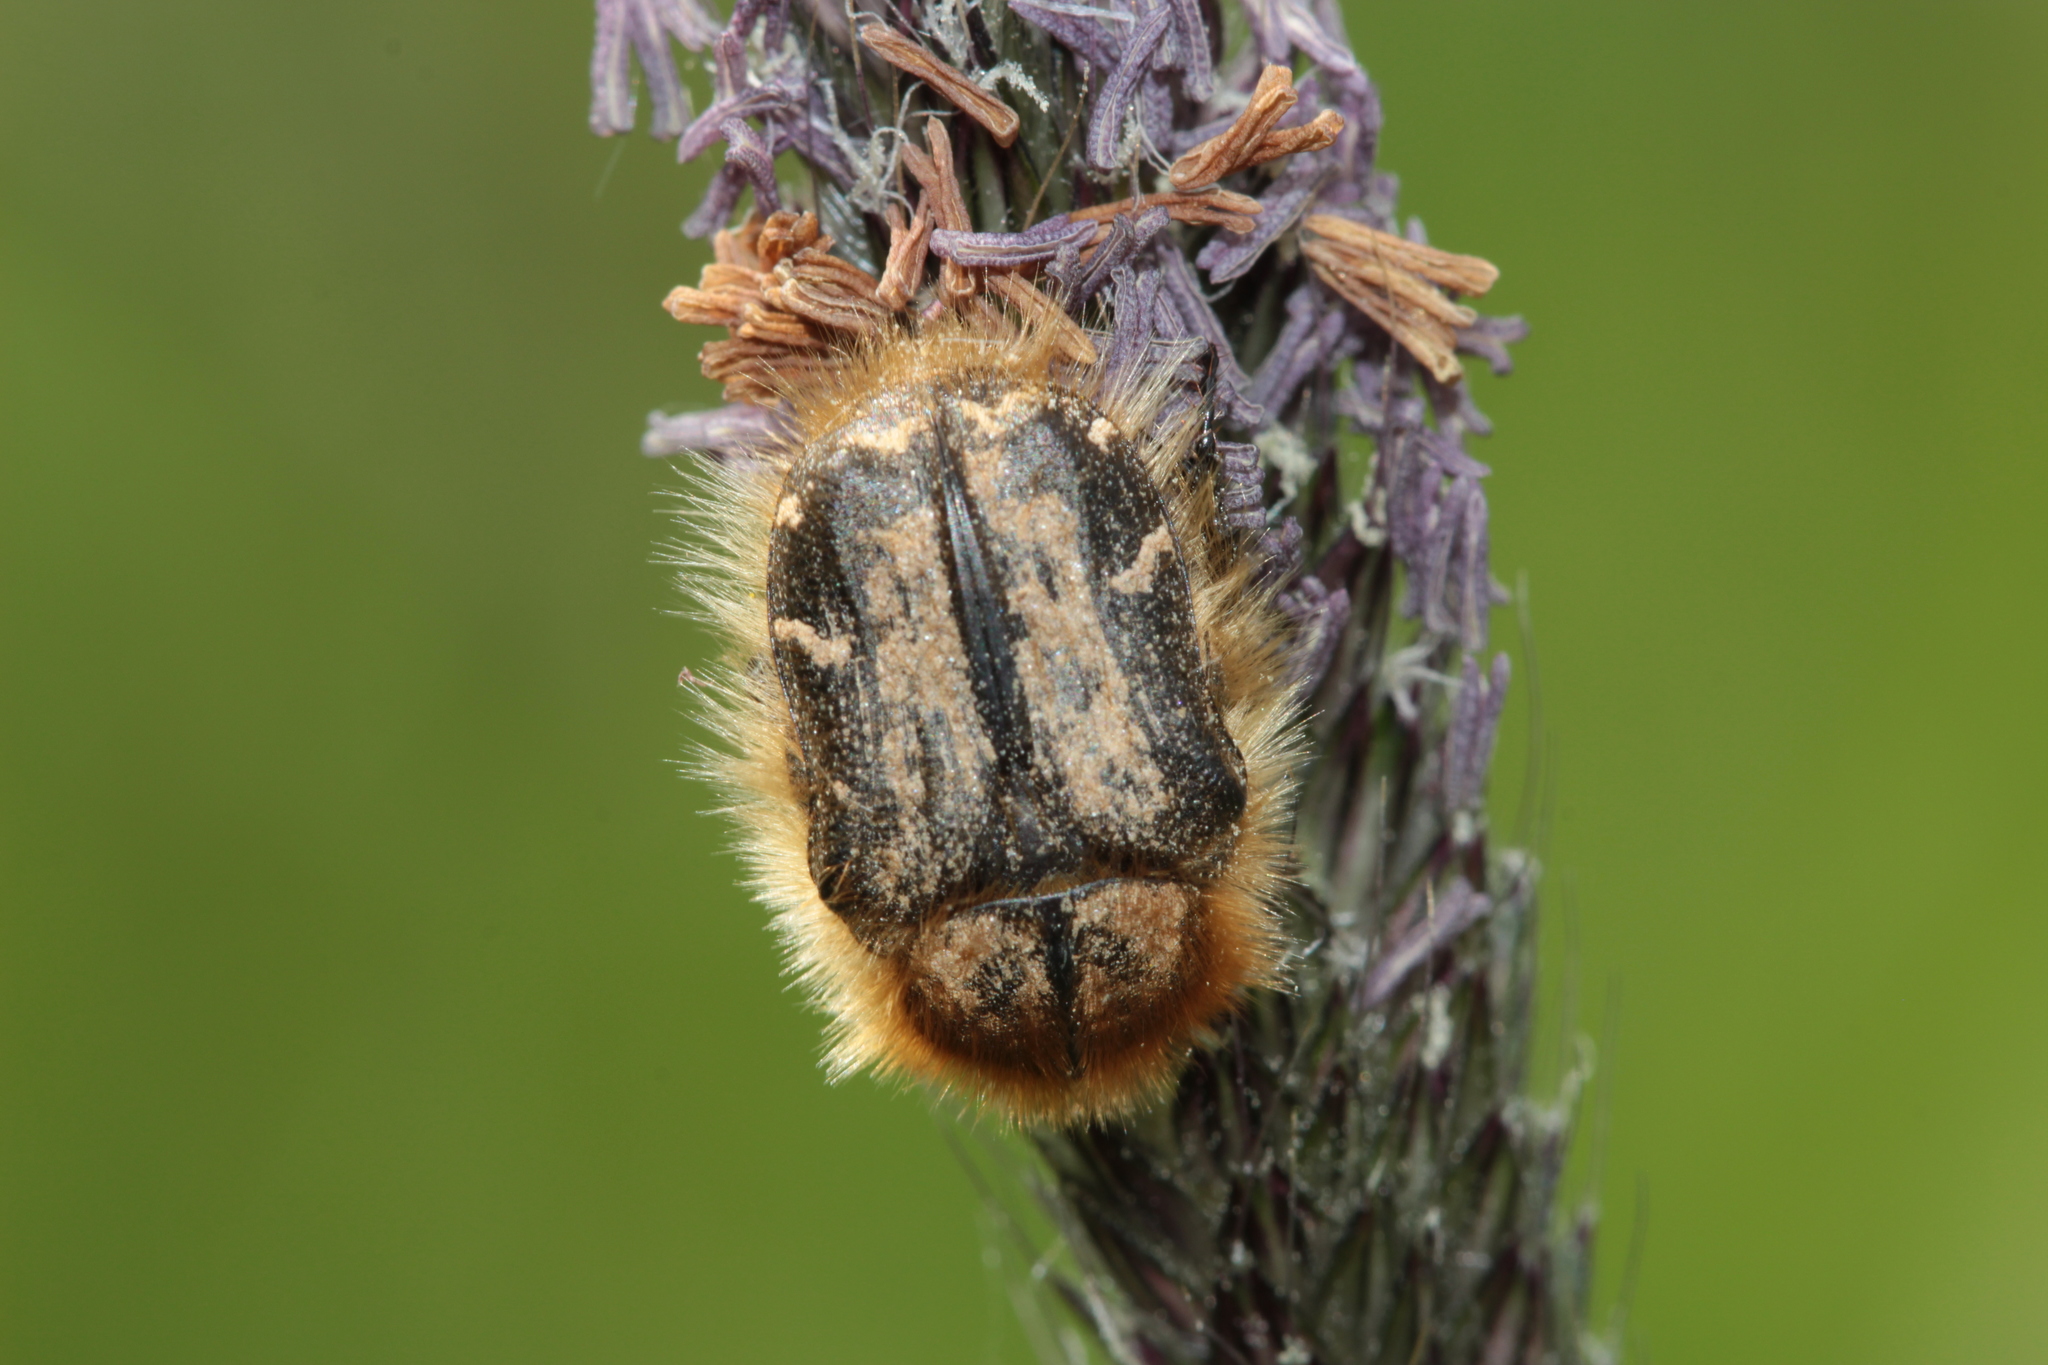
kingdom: Animalia
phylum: Arthropoda
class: Insecta
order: Coleoptera
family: Scarabaeidae
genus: Tropinota
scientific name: Tropinota hirta
